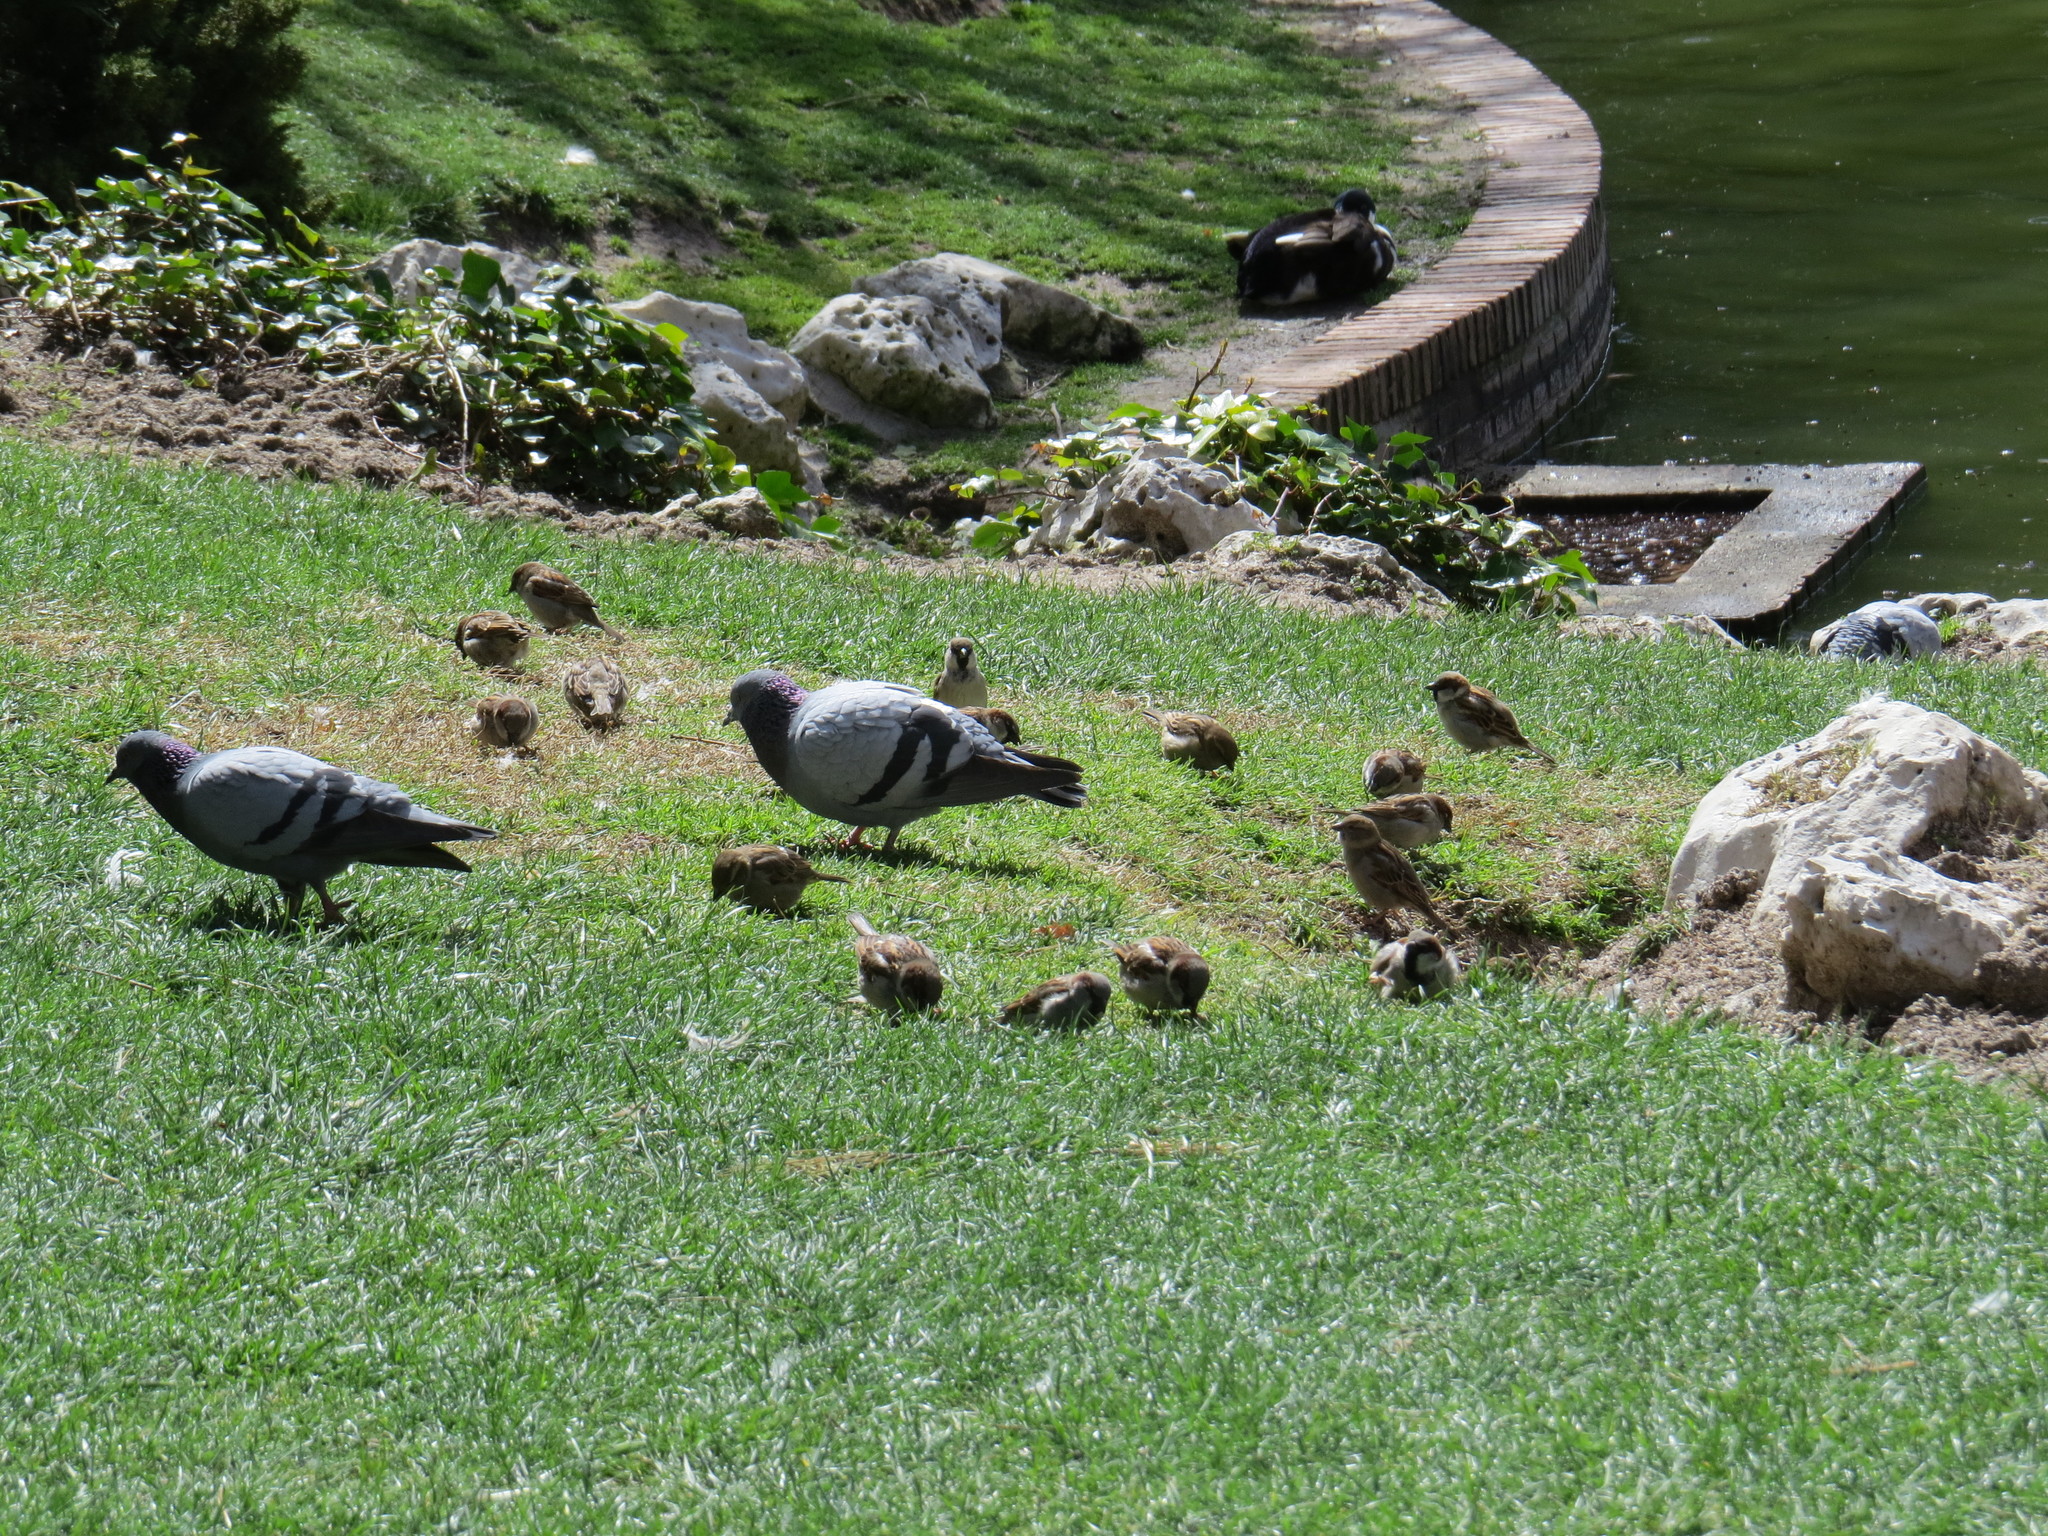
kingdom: Animalia
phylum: Chordata
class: Aves
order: Passeriformes
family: Passeridae
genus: Passer
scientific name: Passer domesticus
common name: House sparrow
